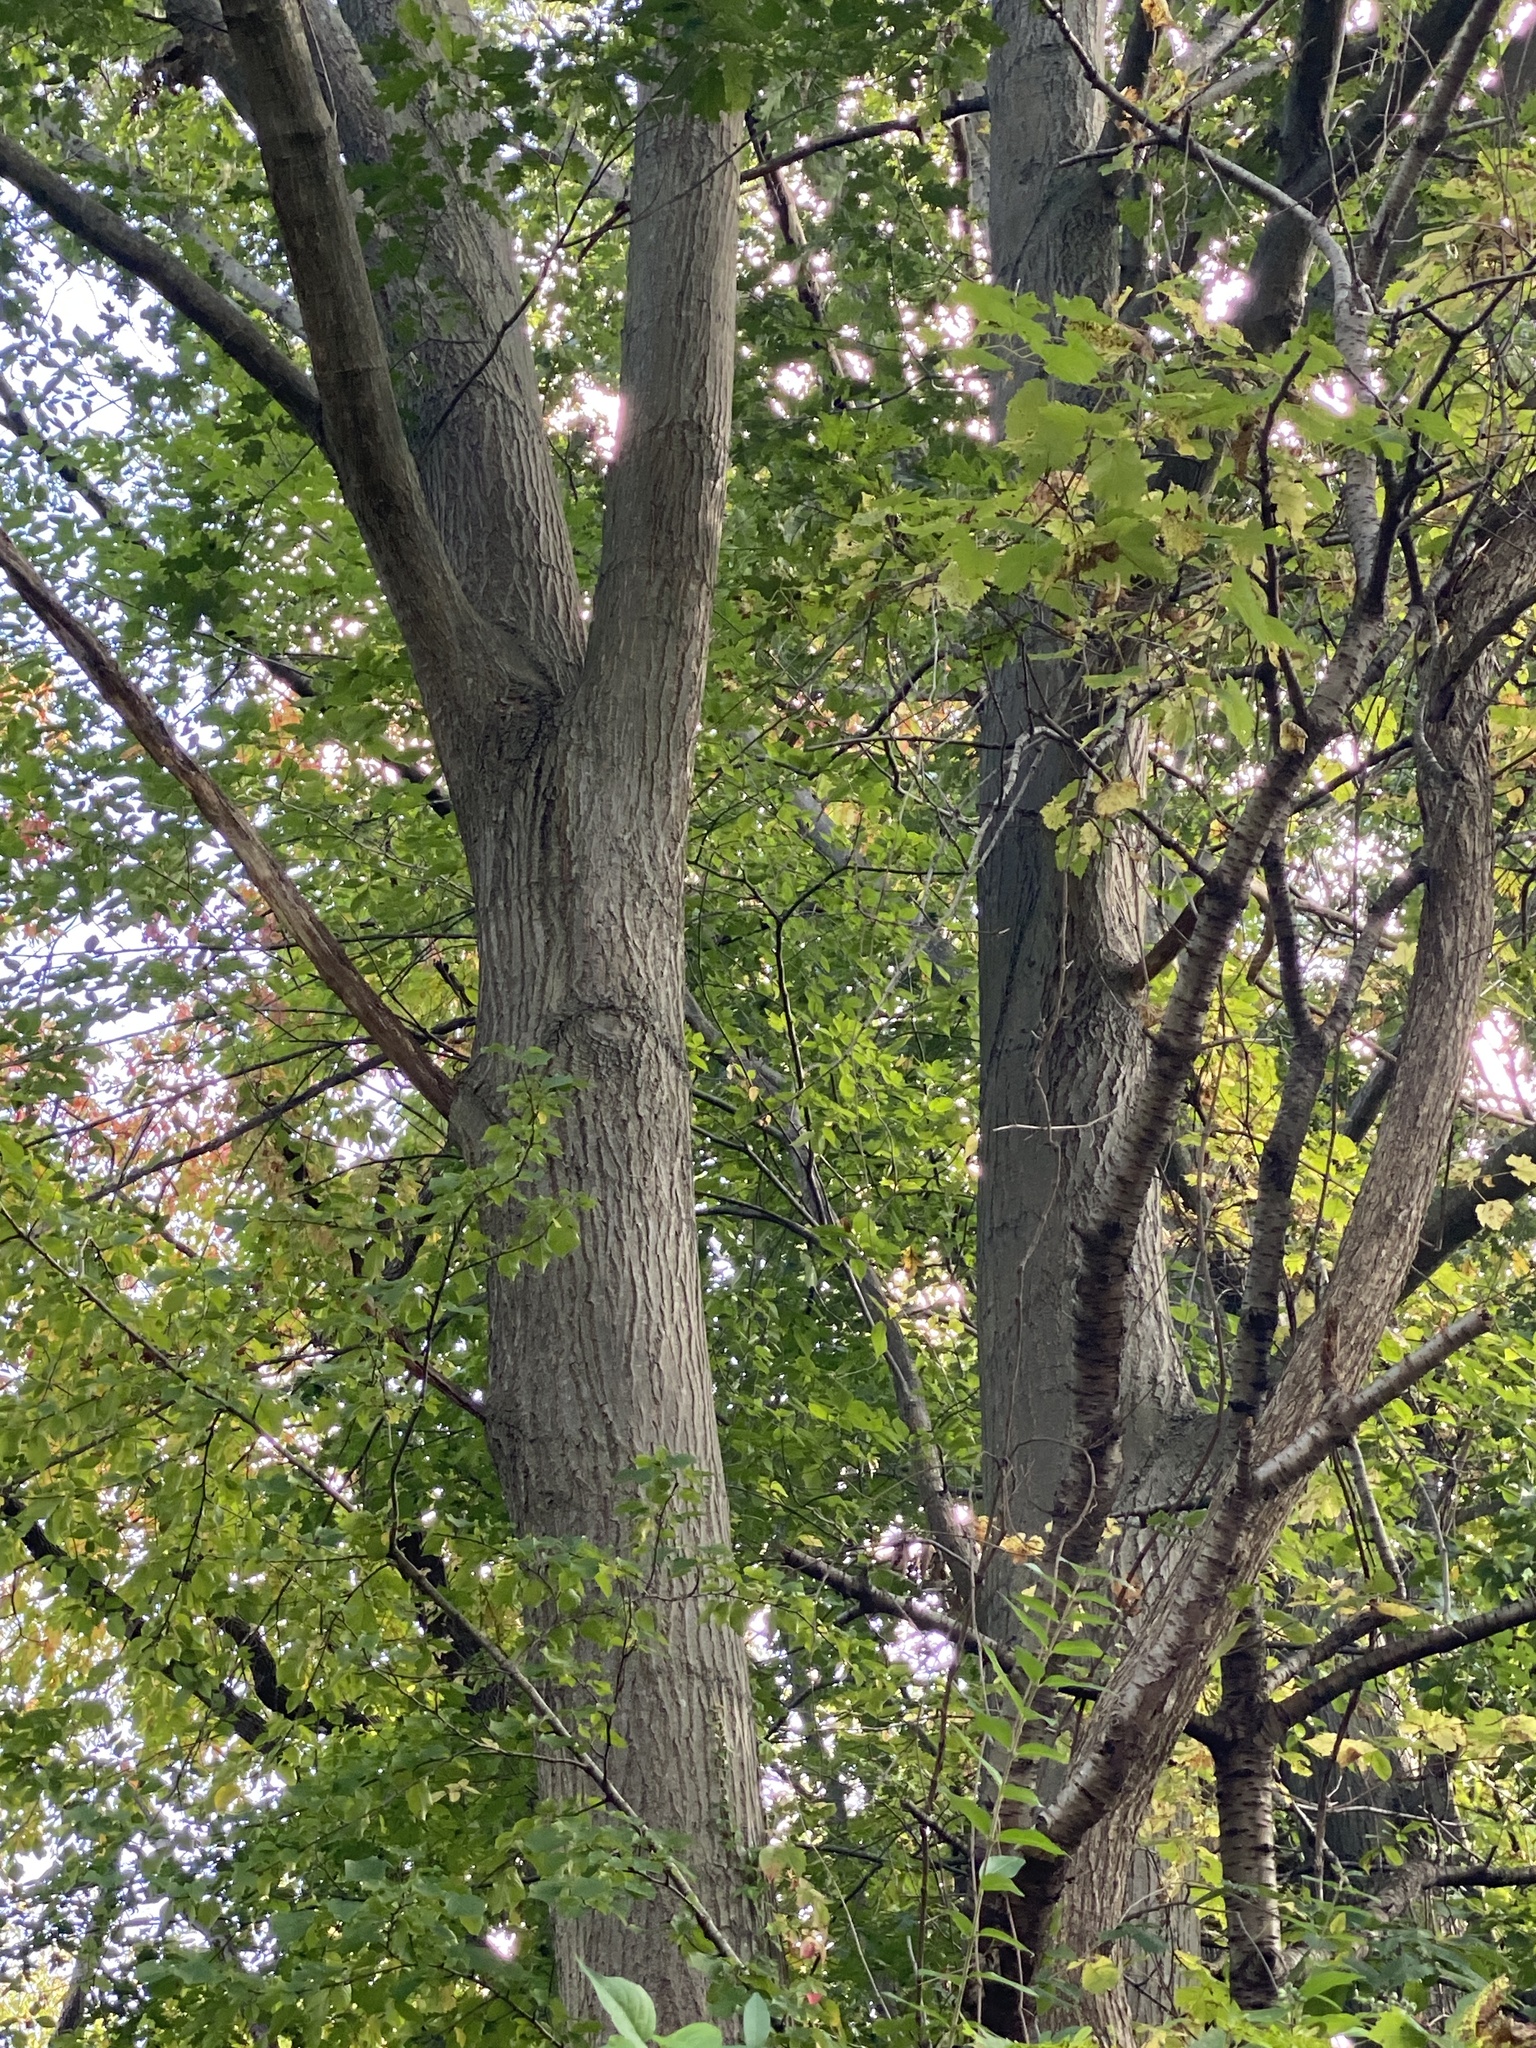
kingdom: Plantae
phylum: Tracheophyta
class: Magnoliopsida
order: Fagales
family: Fagaceae
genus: Quercus
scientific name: Quercus rubra
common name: Red oak
